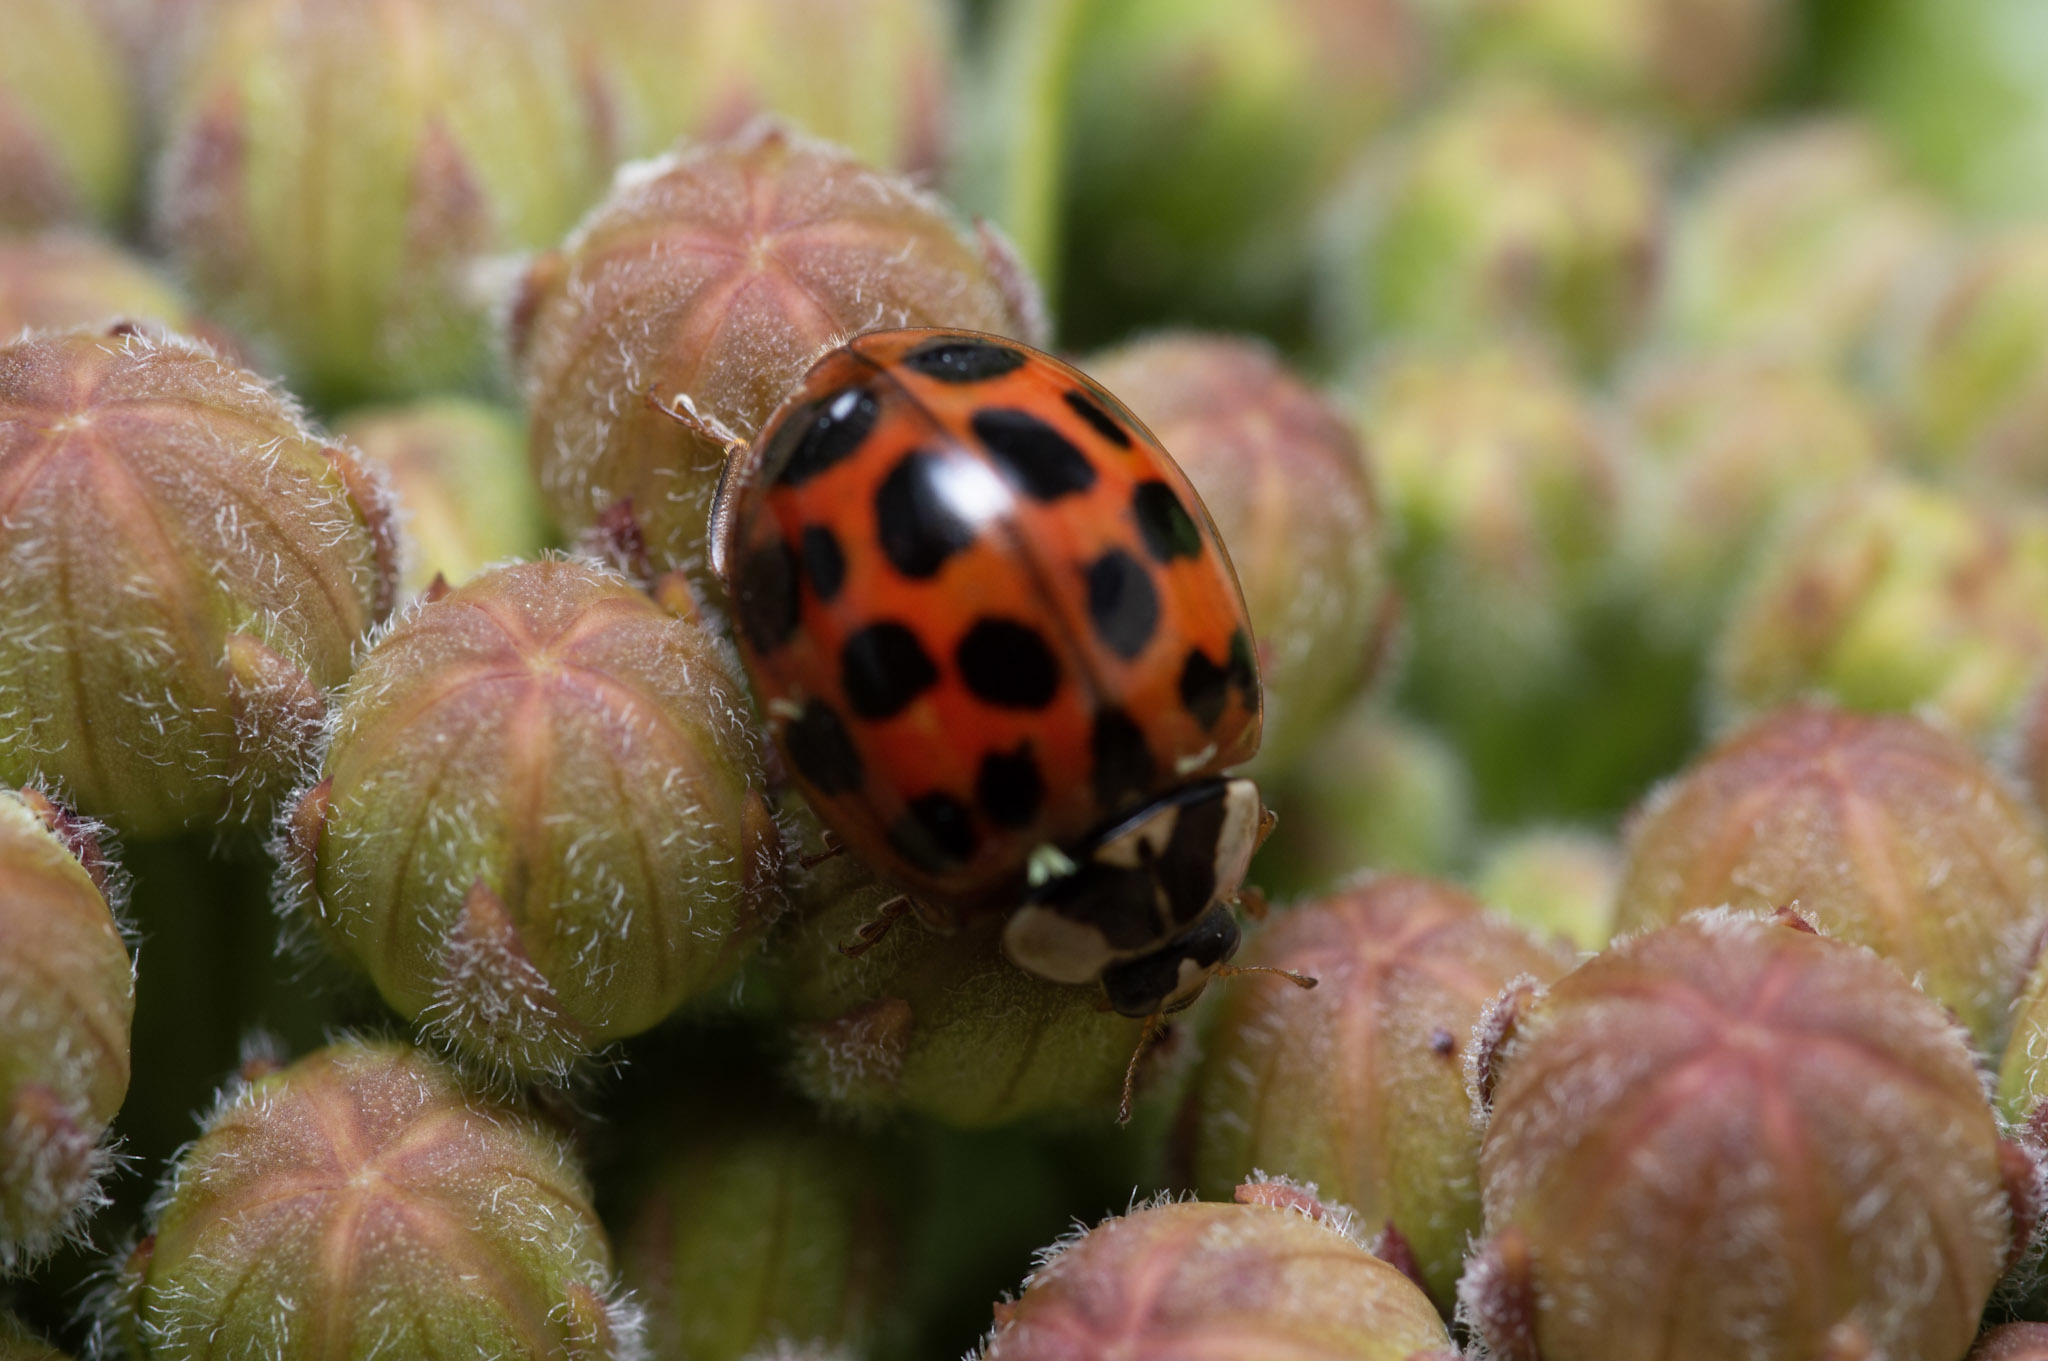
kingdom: Animalia
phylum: Arthropoda
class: Insecta
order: Coleoptera
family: Coccinellidae
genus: Harmonia
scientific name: Harmonia axyridis
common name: Harlequin ladybird
